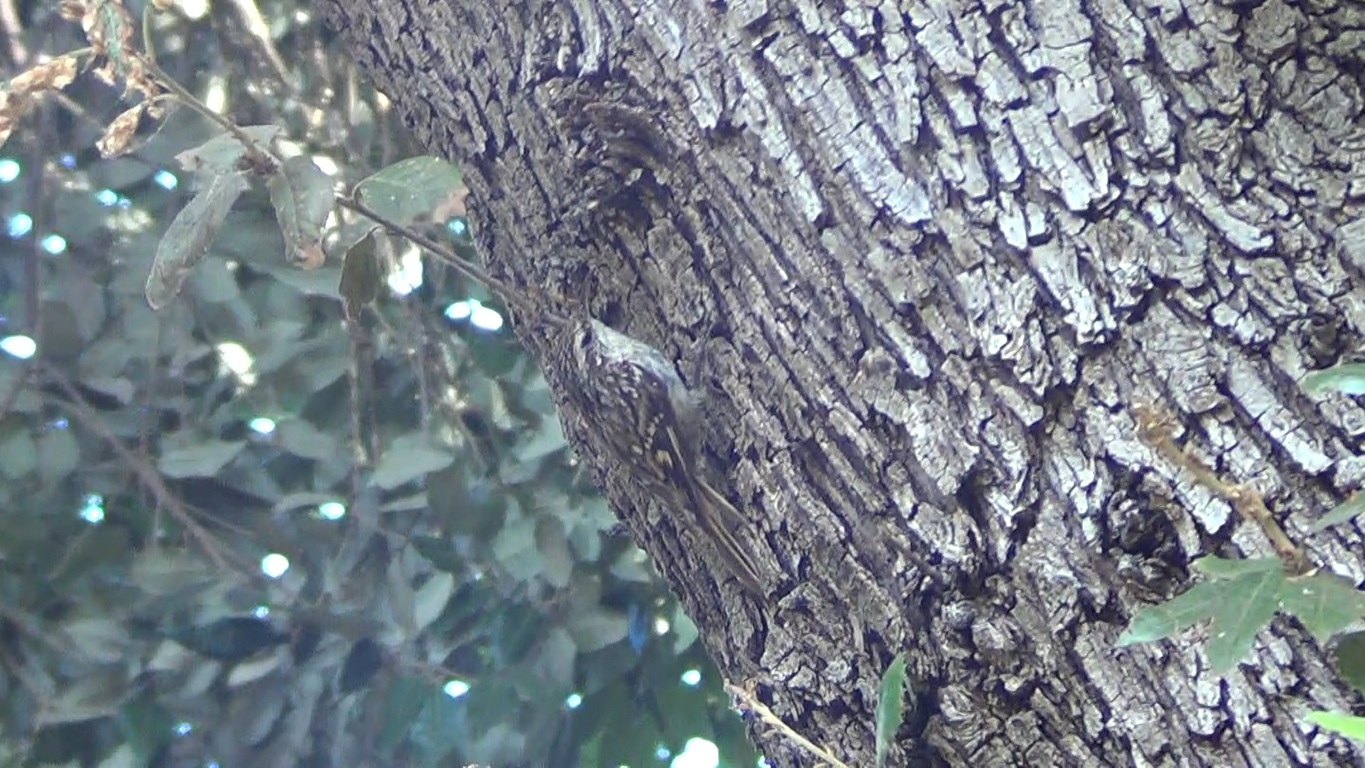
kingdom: Animalia
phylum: Chordata
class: Aves
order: Passeriformes
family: Certhiidae
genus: Certhia
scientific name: Certhia brachydactyla
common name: Short-toed treecreeper
